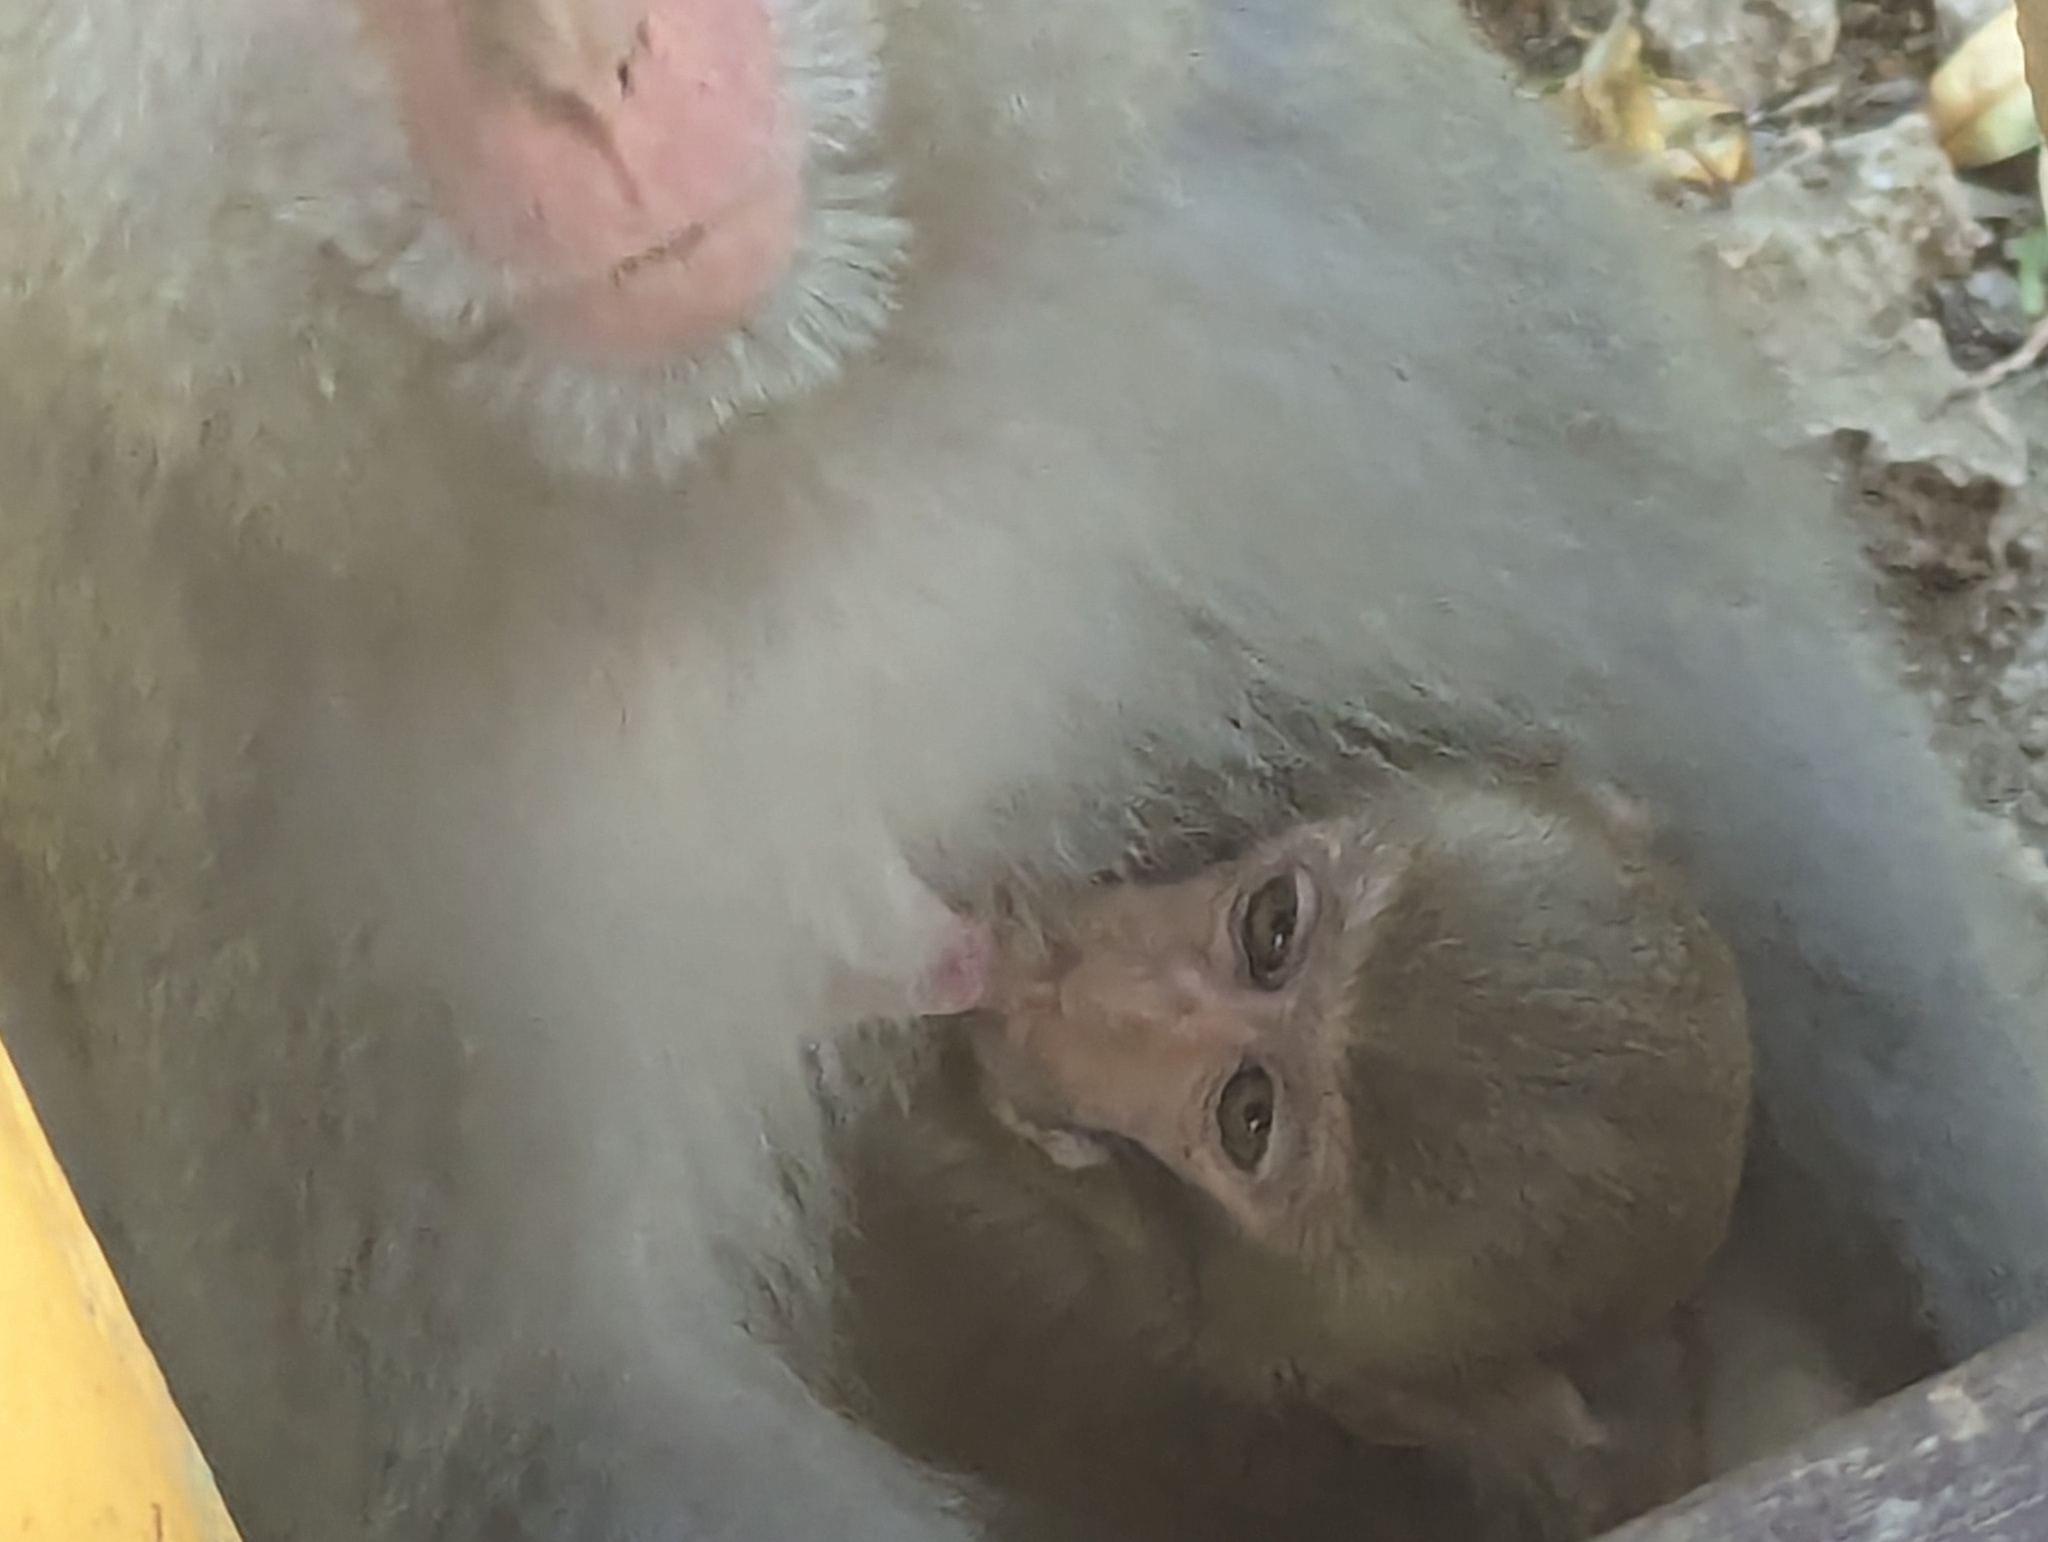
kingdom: Animalia
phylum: Chordata
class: Mammalia
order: Primates
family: Cercopithecidae
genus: Macaca
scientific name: Macaca cyclopis
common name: Formosan rock macaque
